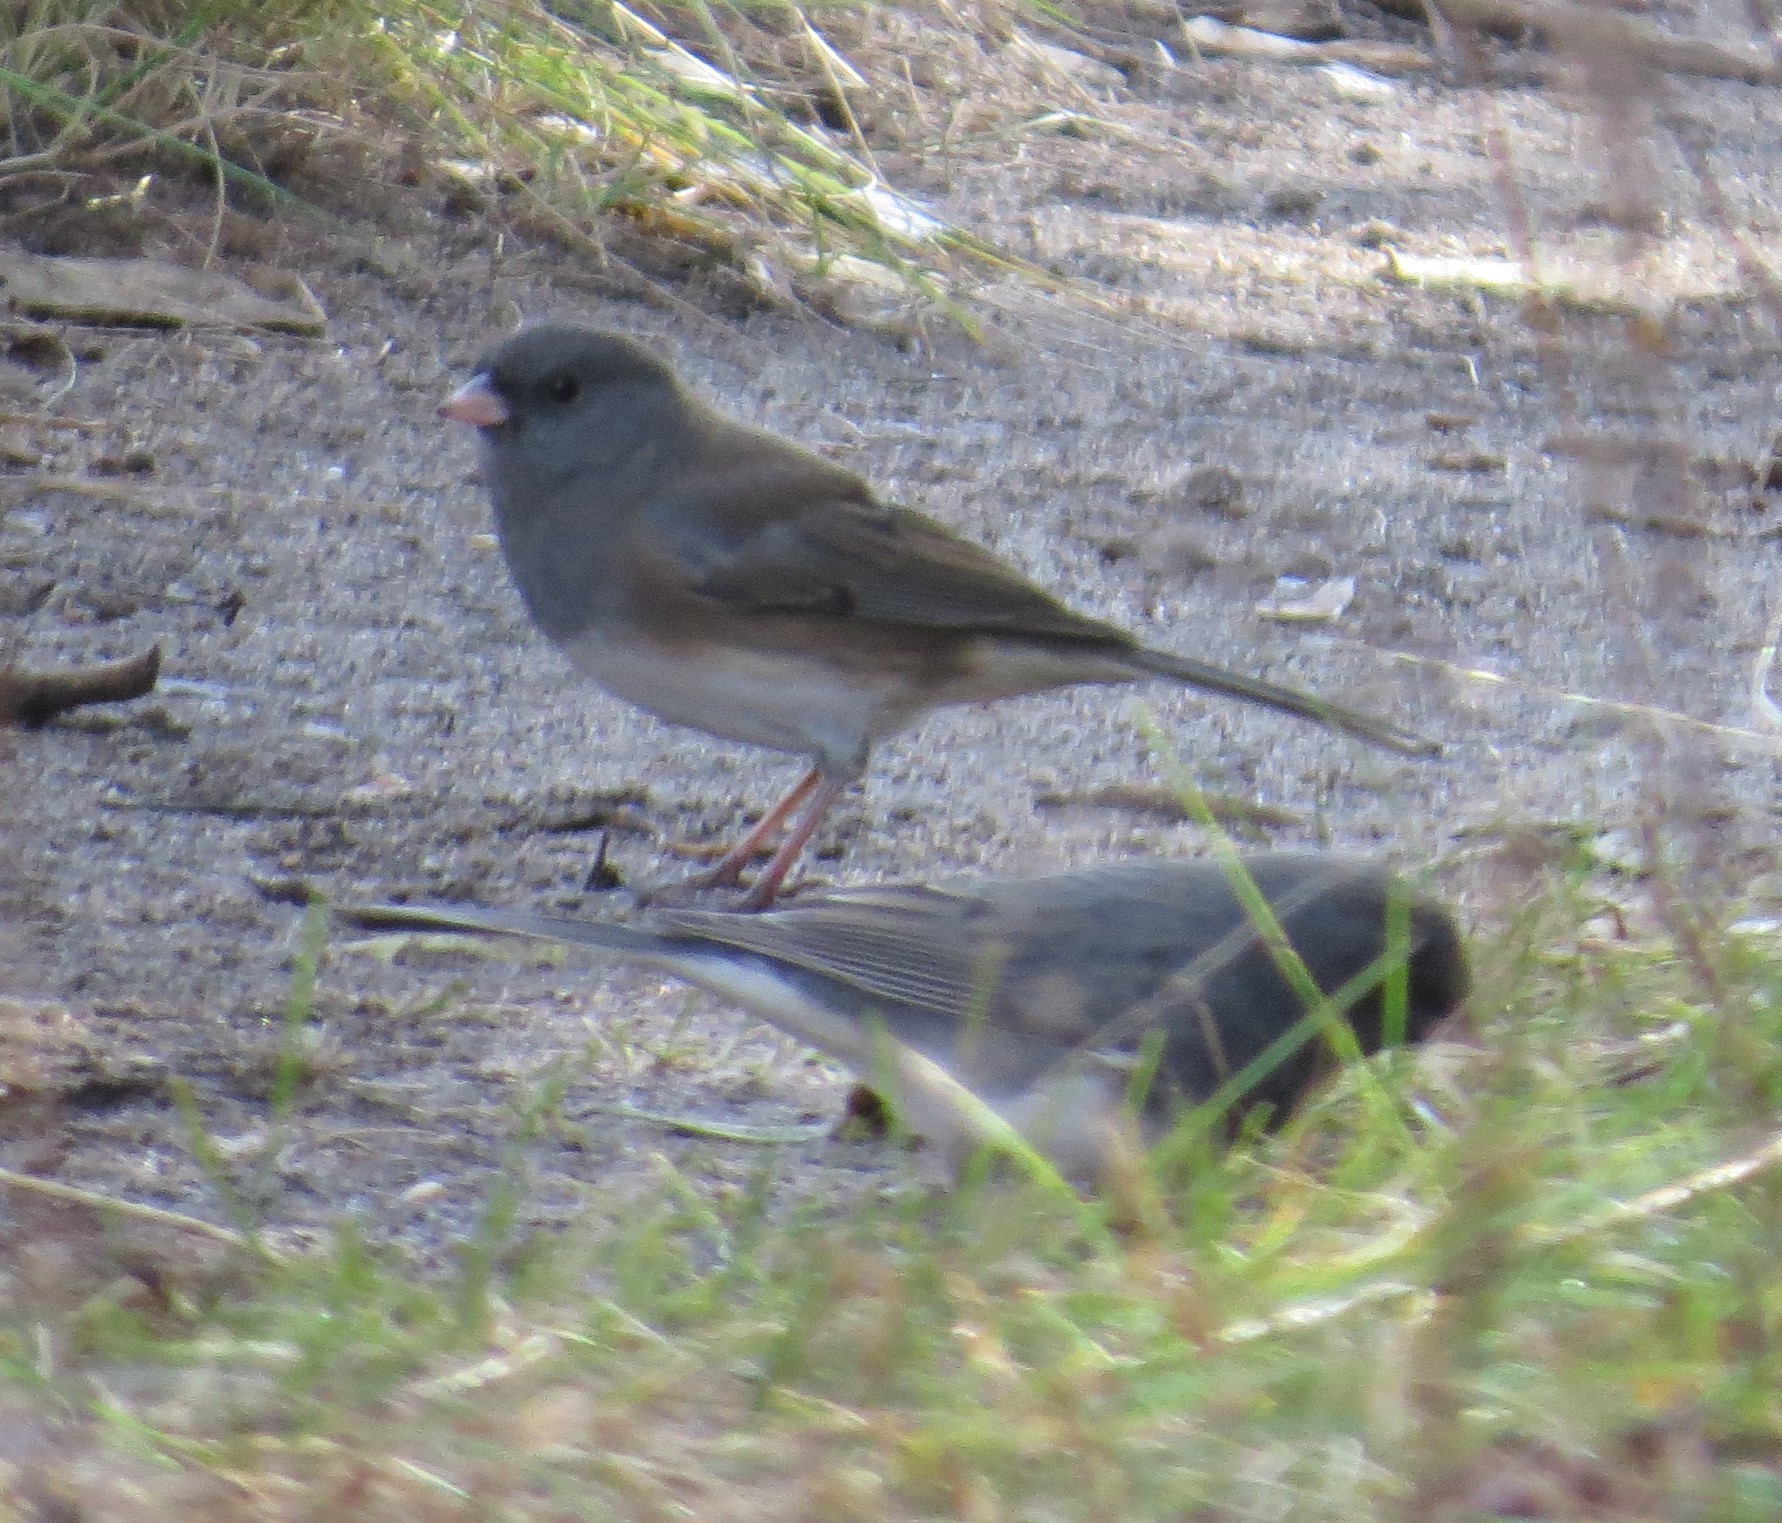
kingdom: Animalia
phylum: Chordata
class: Aves
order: Passeriformes
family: Passerellidae
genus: Junco
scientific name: Junco hyemalis
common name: Dark-eyed junco
